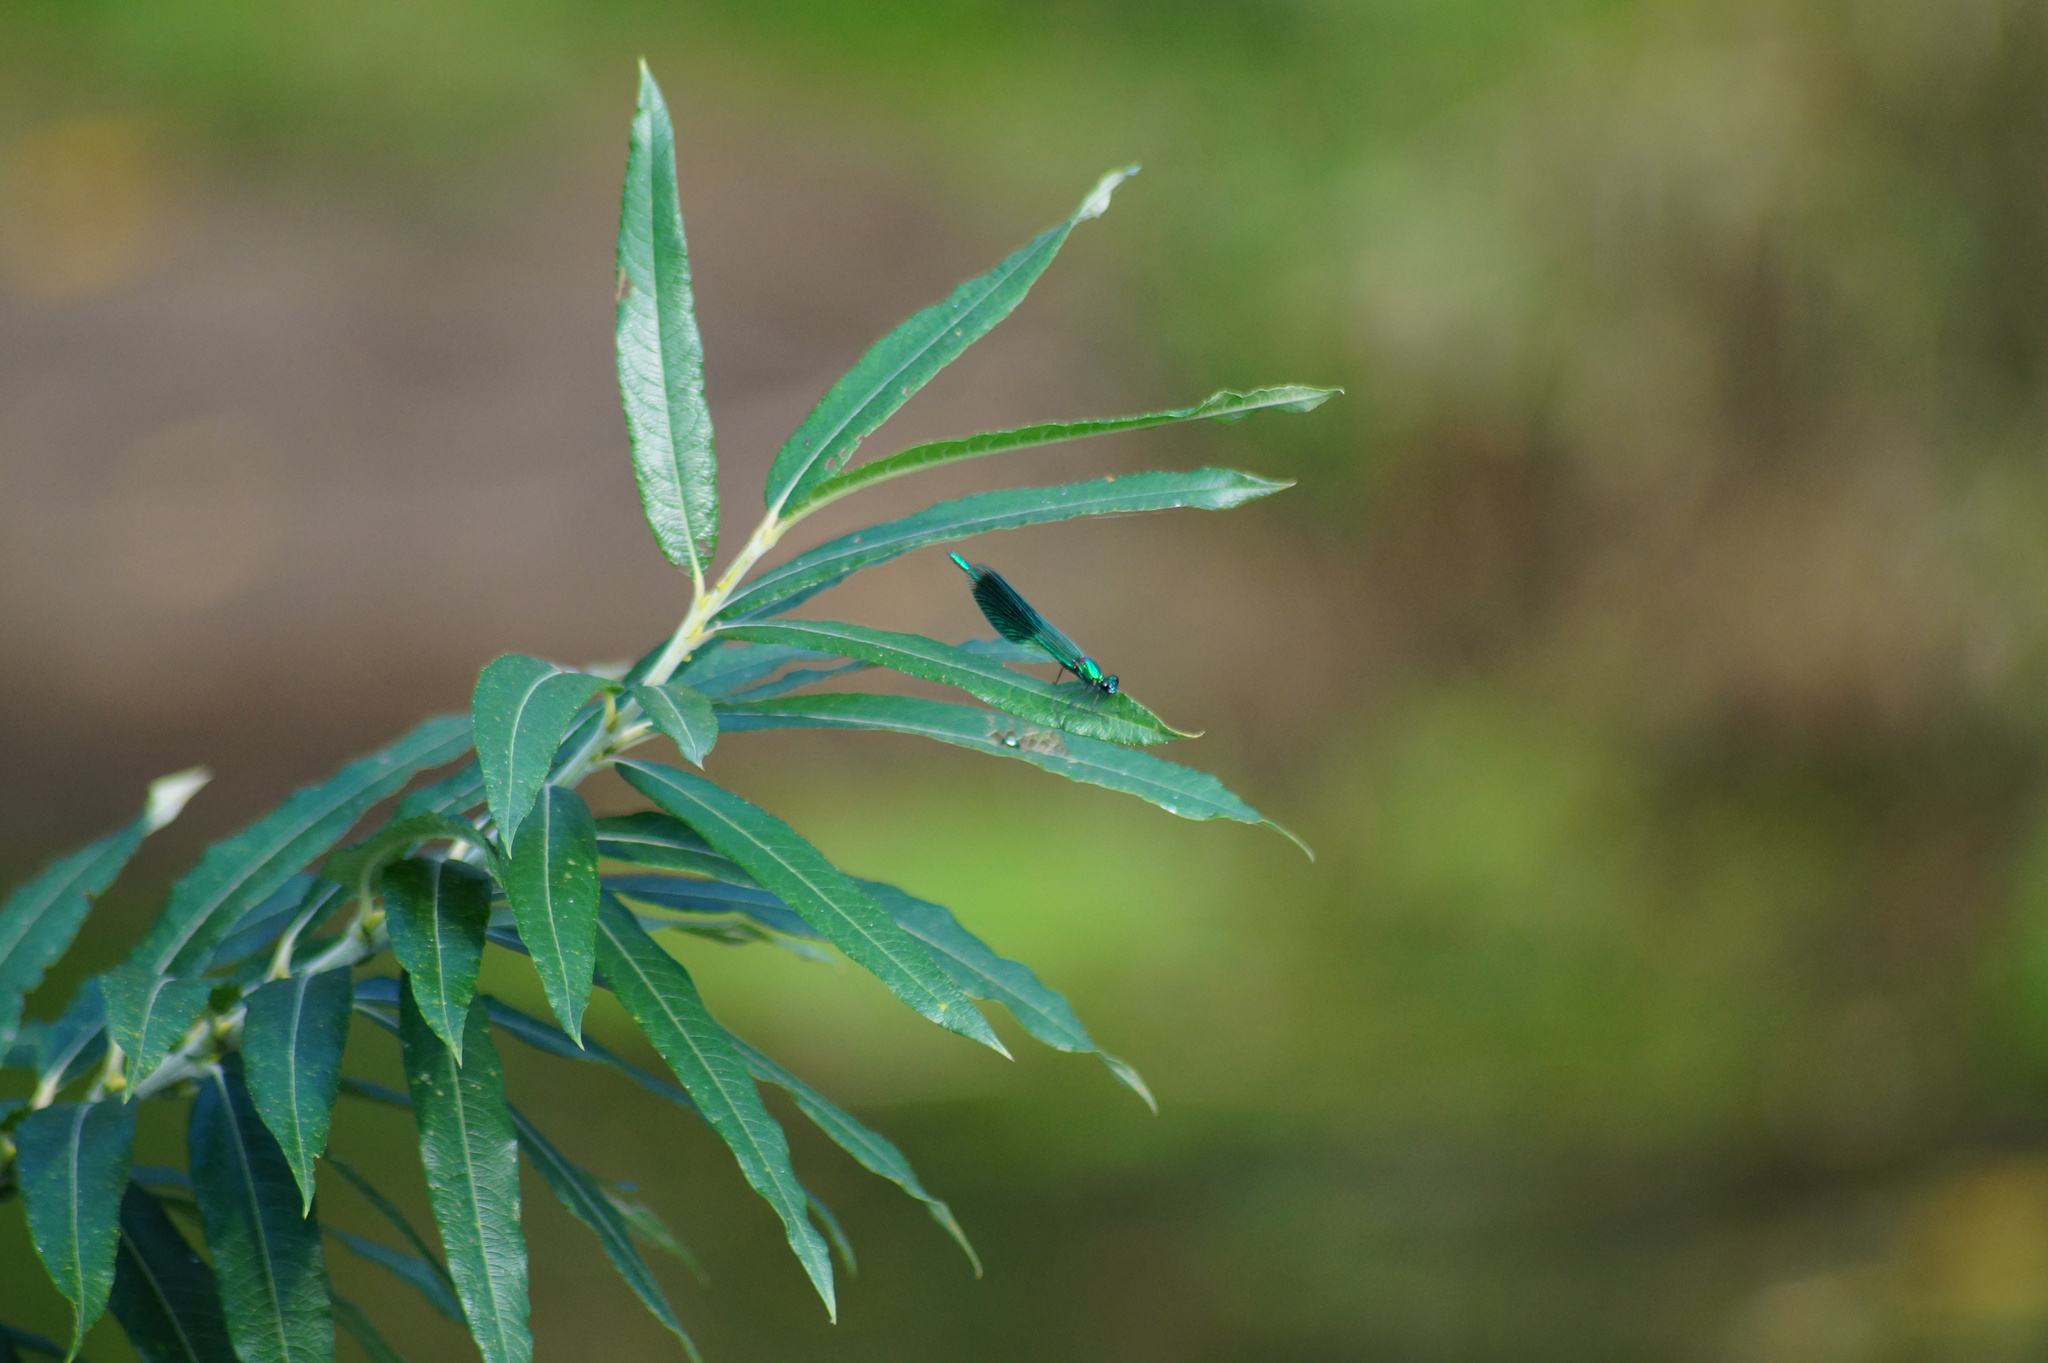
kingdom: Animalia
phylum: Arthropoda
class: Insecta
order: Odonata
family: Calopterygidae
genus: Calopteryx
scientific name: Calopteryx splendens
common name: Banded demoiselle
